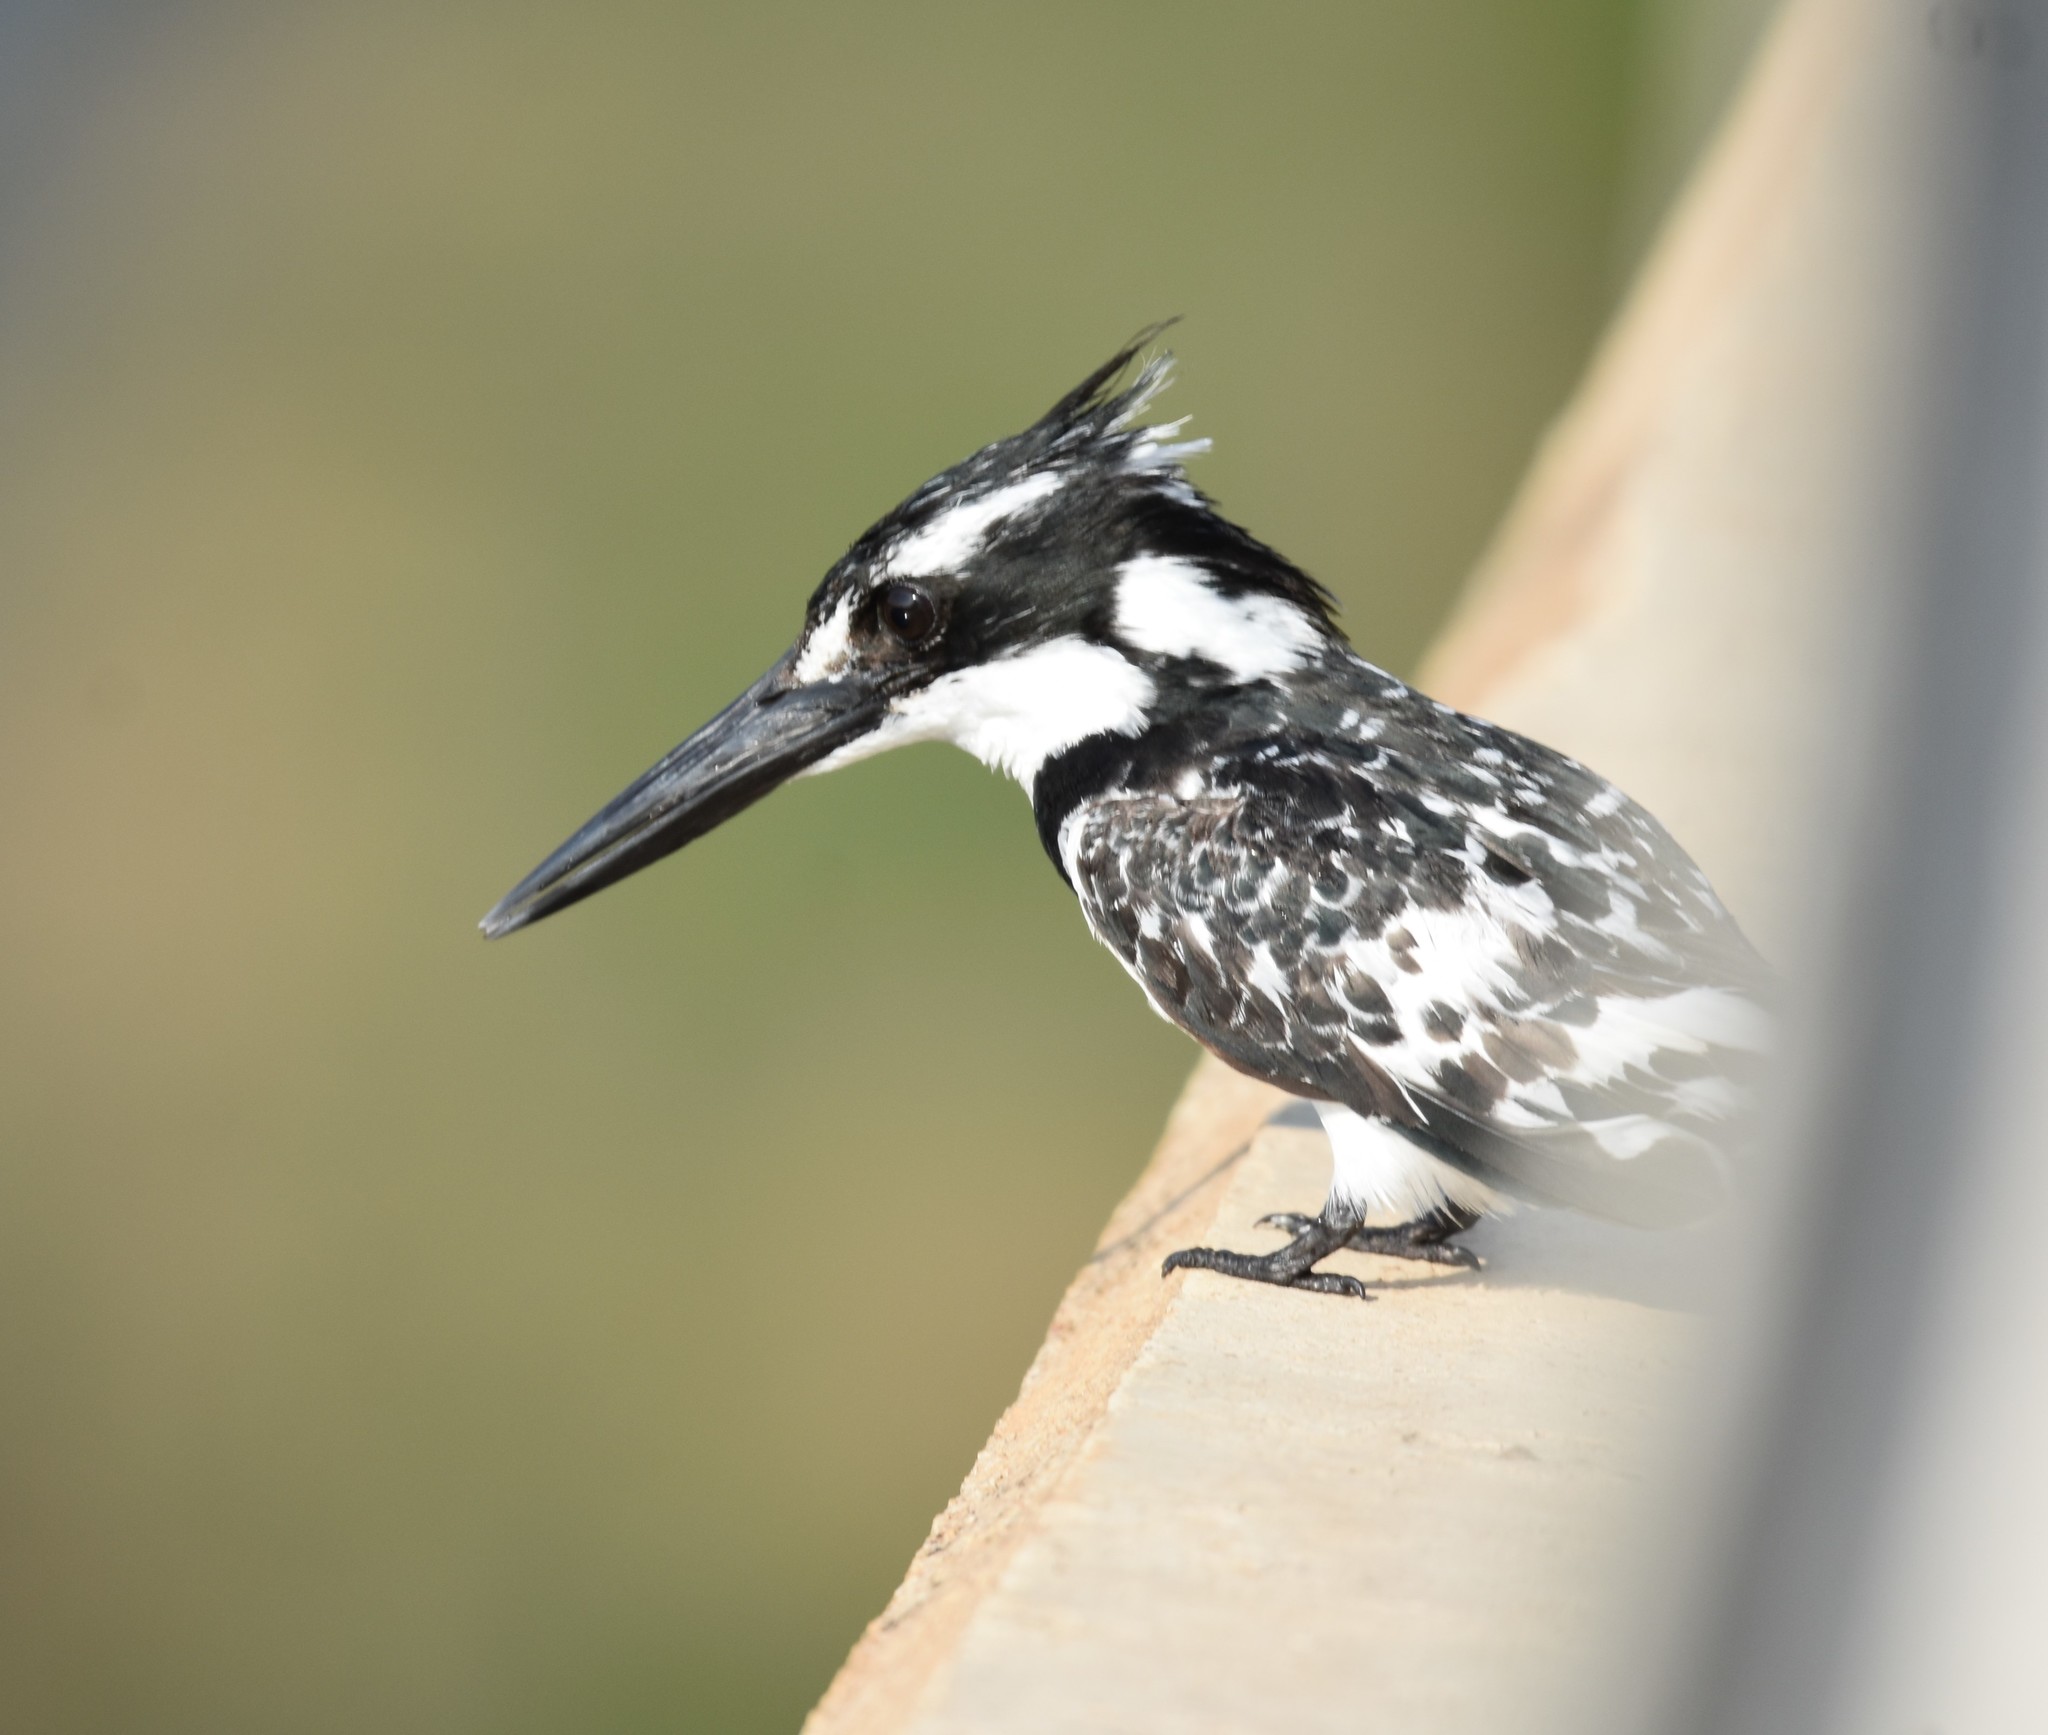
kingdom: Animalia
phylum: Chordata
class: Aves
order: Coraciiformes
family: Alcedinidae
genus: Ceryle
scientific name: Ceryle rudis
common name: Pied kingfisher
